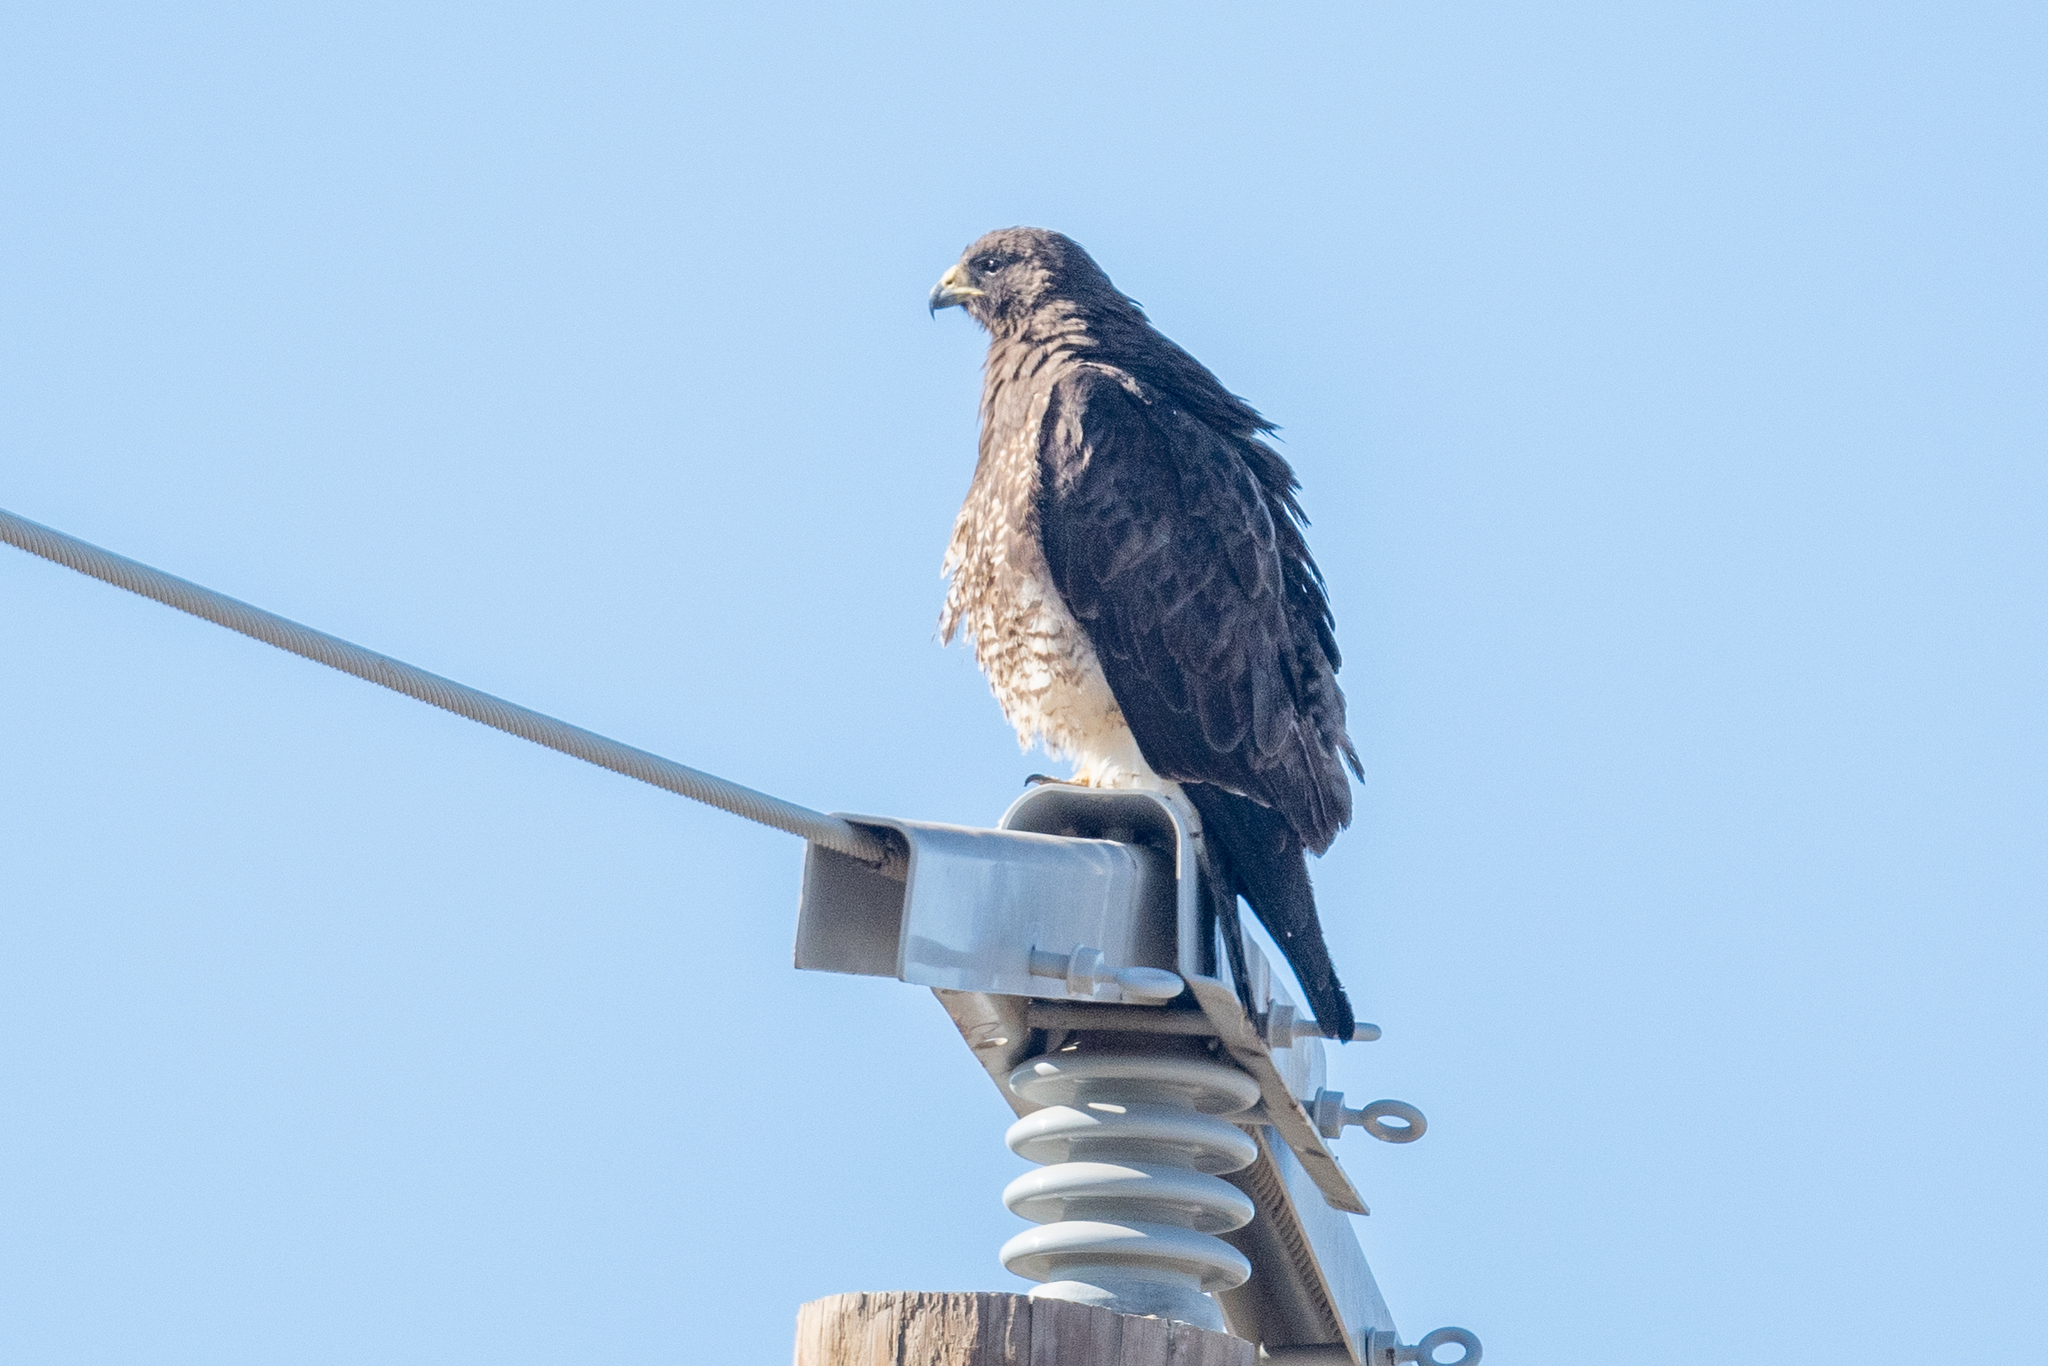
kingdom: Animalia
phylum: Chordata
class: Aves
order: Accipitriformes
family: Accipitridae
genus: Buteo
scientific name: Buteo swainsoni
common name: Swainson's hawk
